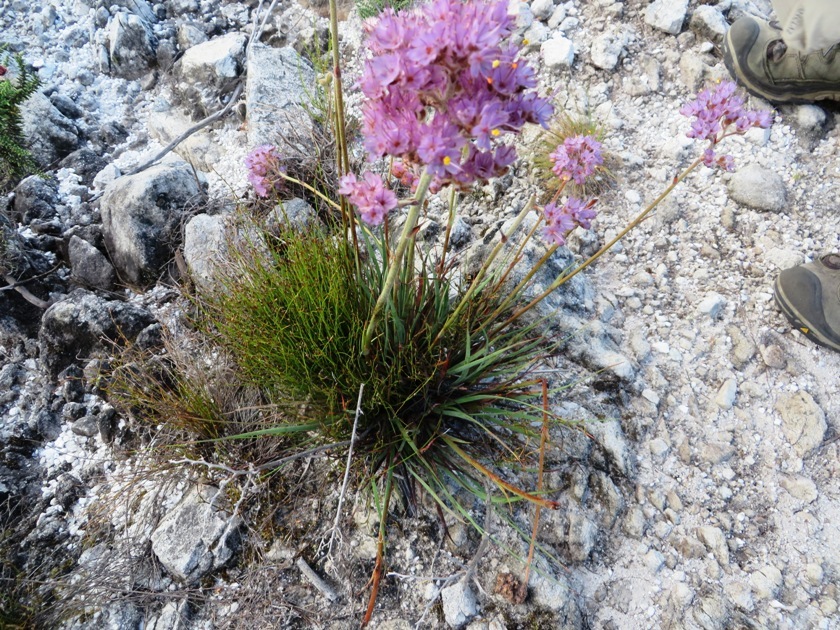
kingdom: Plantae
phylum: Tracheophyta
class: Liliopsida
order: Commelinales
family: Haemodoraceae
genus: Dilatris
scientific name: Dilatris ixioides
